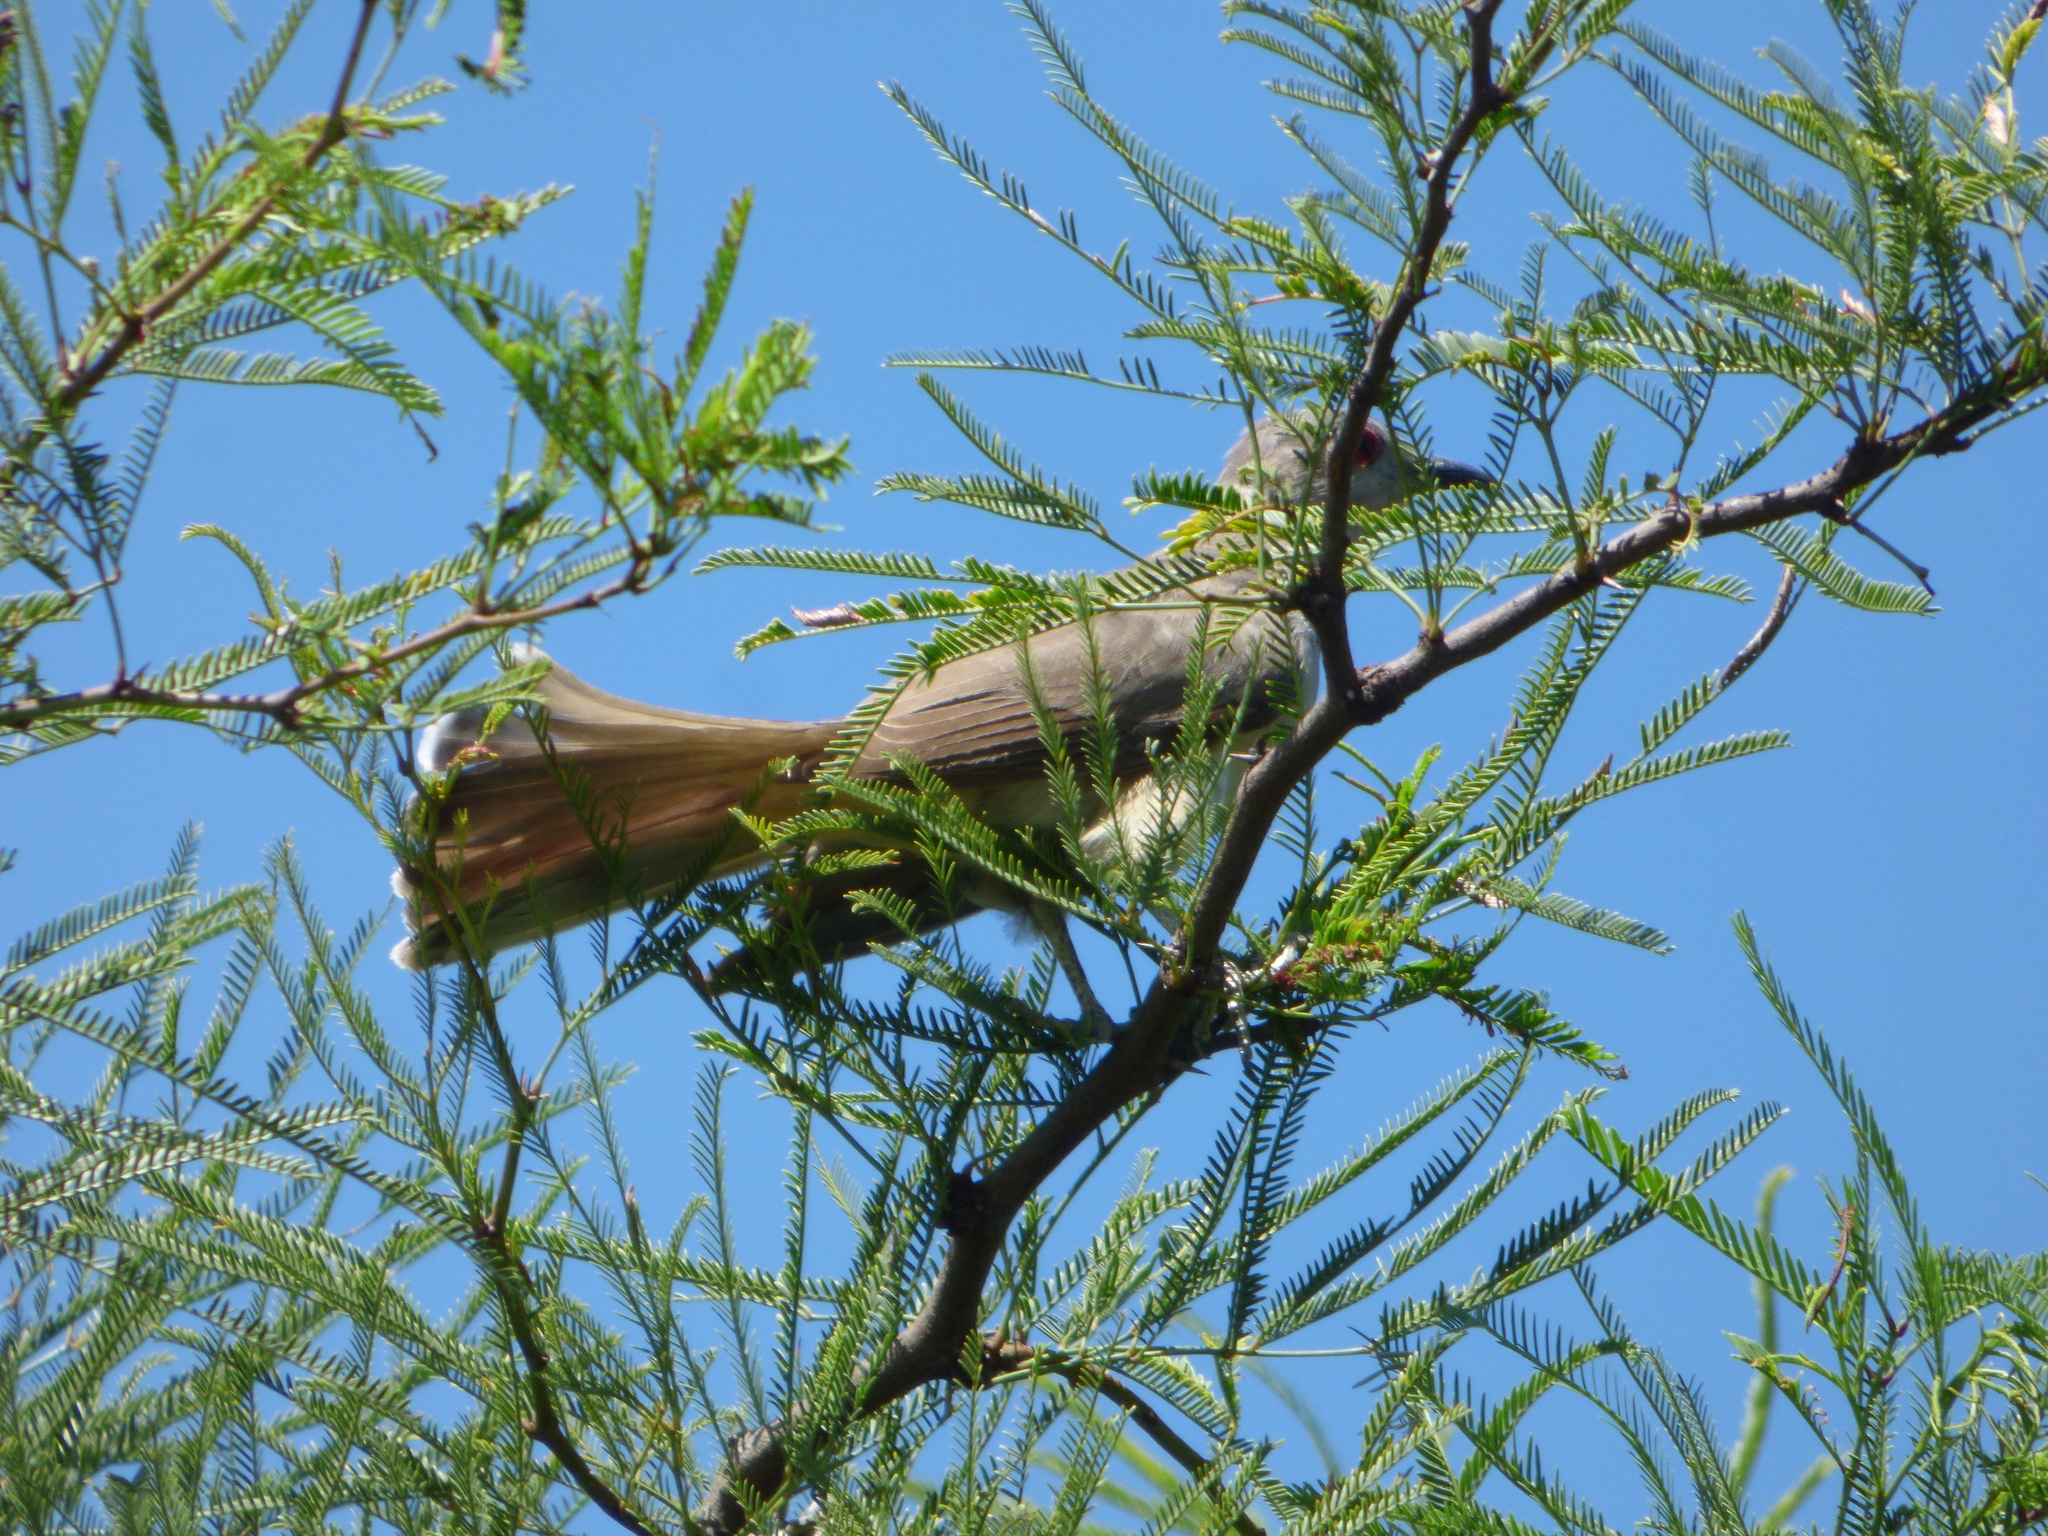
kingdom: Animalia
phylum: Chordata
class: Aves
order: Cuculiformes
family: Cuculidae
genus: Coccyzus
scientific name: Coccyzus cinereus
